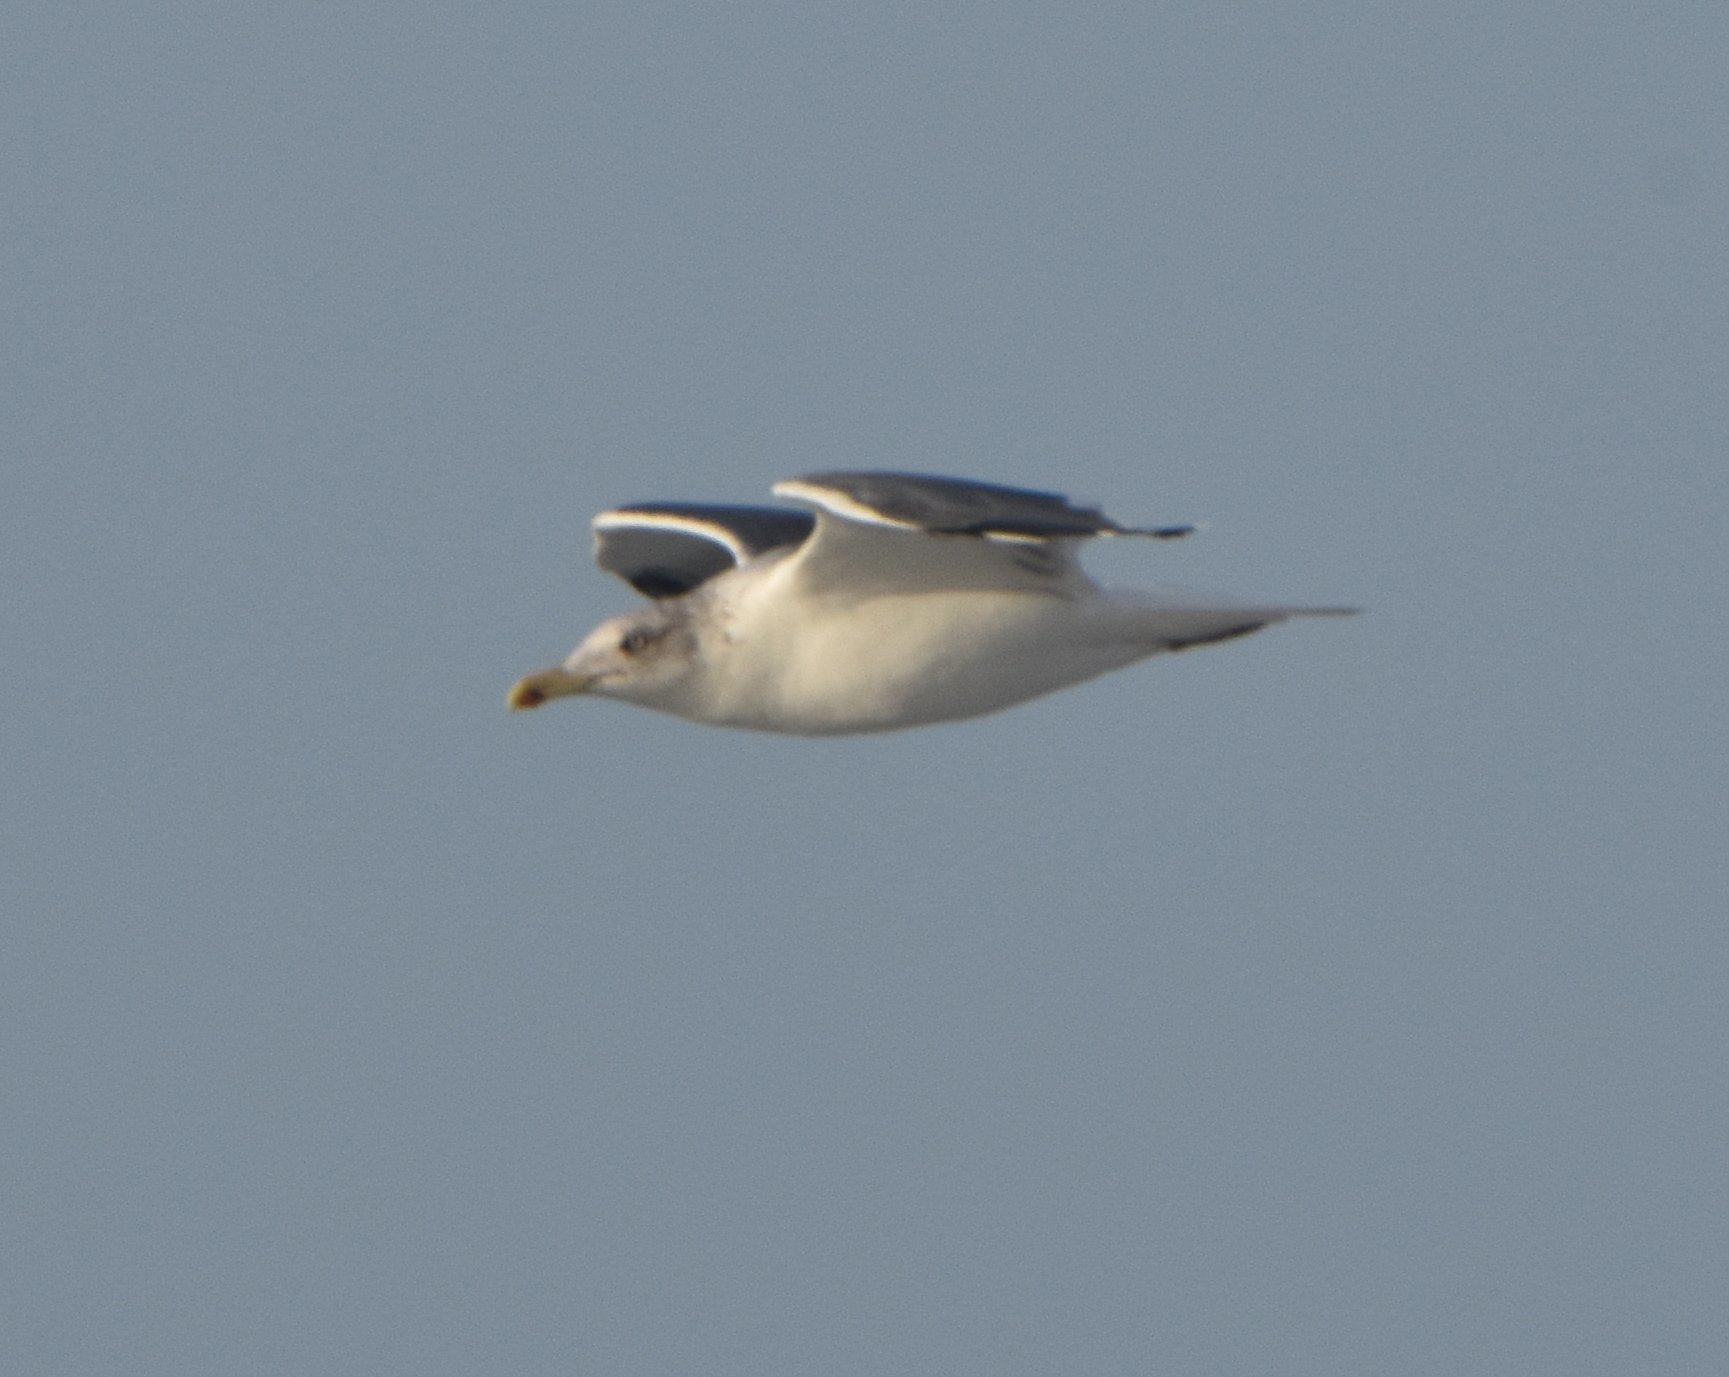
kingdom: Animalia
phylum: Chordata
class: Aves
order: Charadriiformes
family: Laridae
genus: Larus
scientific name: Larus fuscus
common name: Lesser black-backed gull
